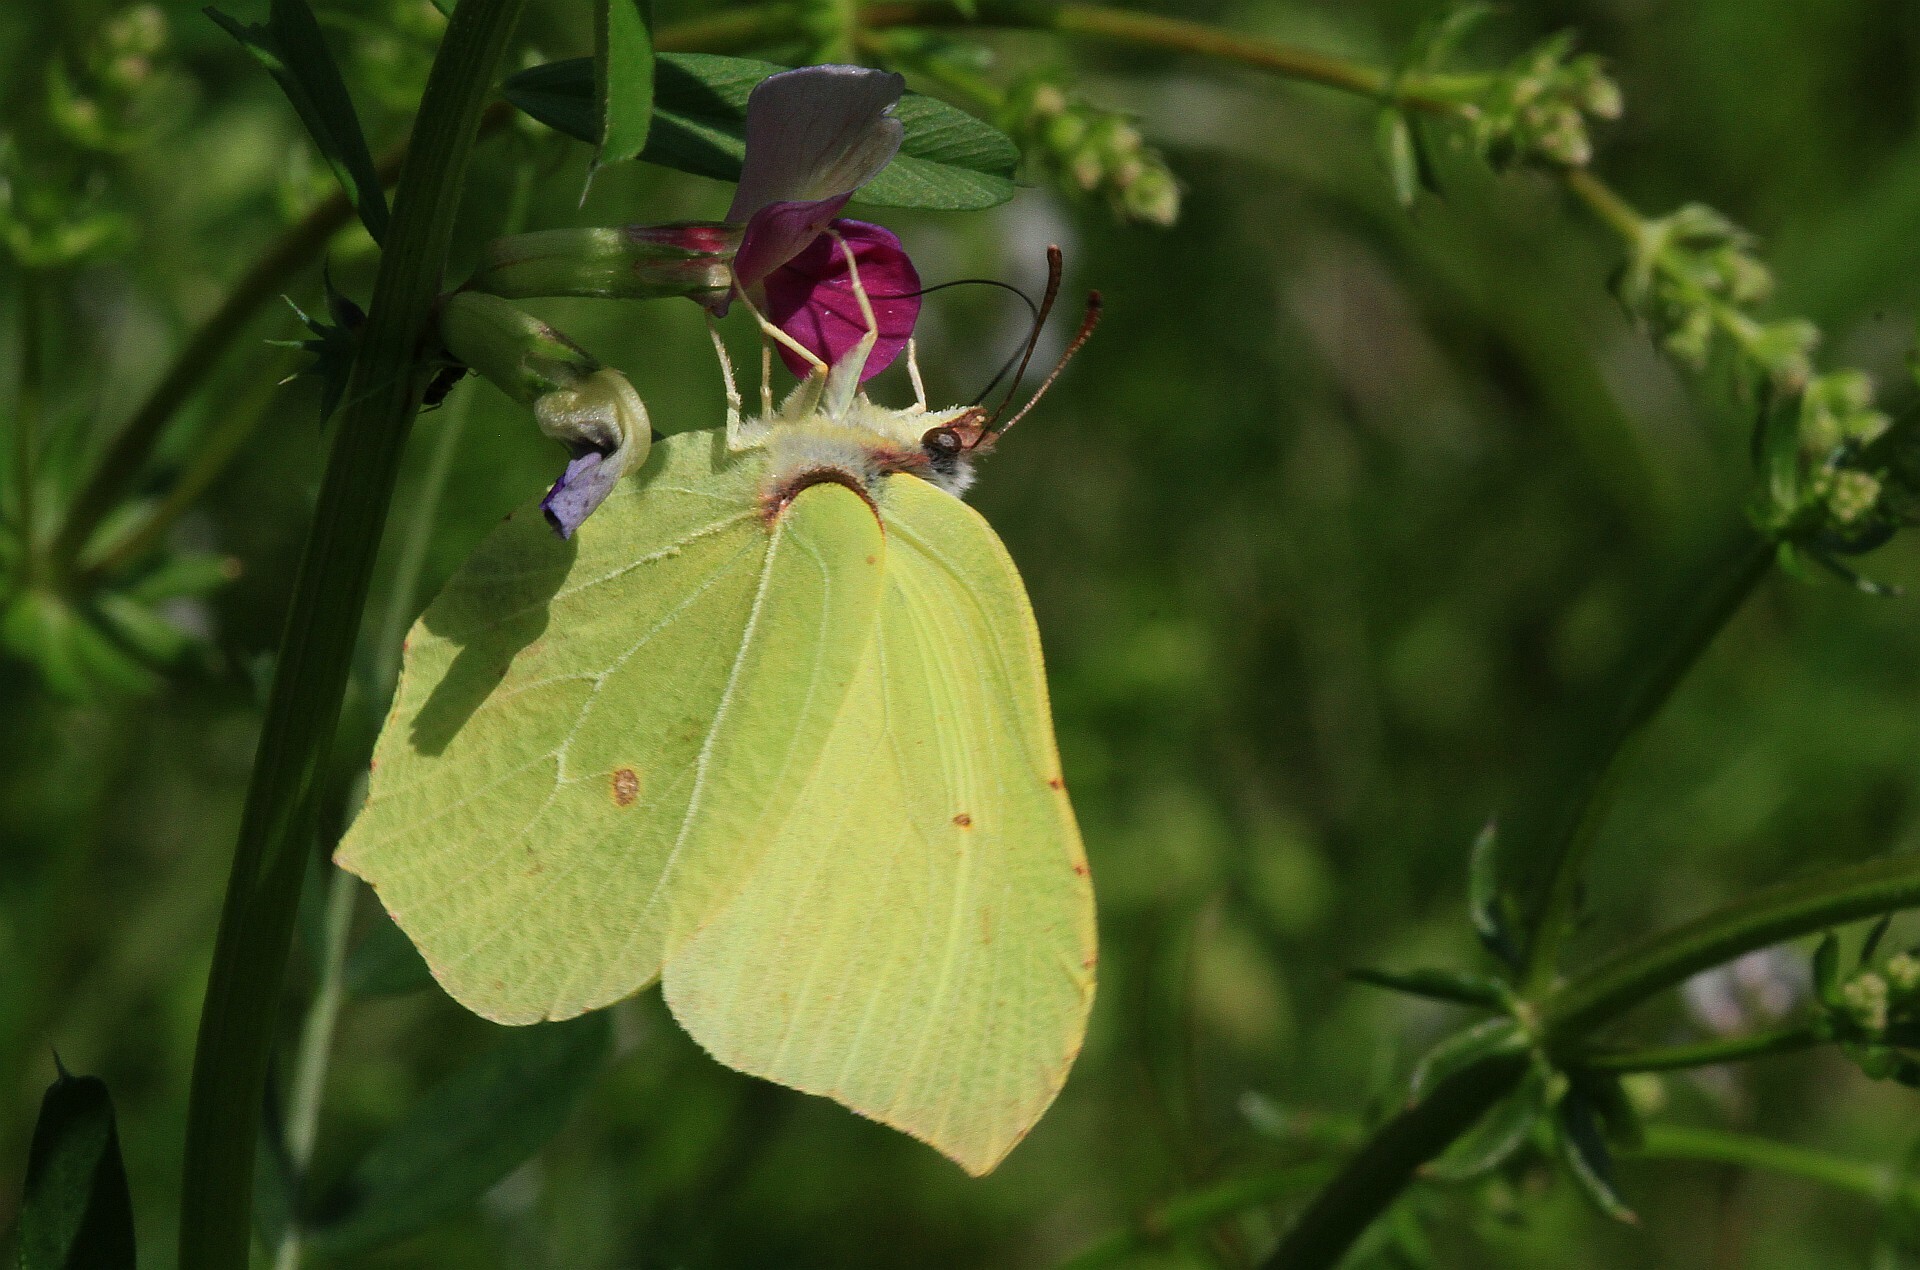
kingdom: Animalia
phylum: Arthropoda
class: Insecta
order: Lepidoptera
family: Pieridae
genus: Gonepteryx
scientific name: Gonepteryx rhamni
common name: Brimstone
